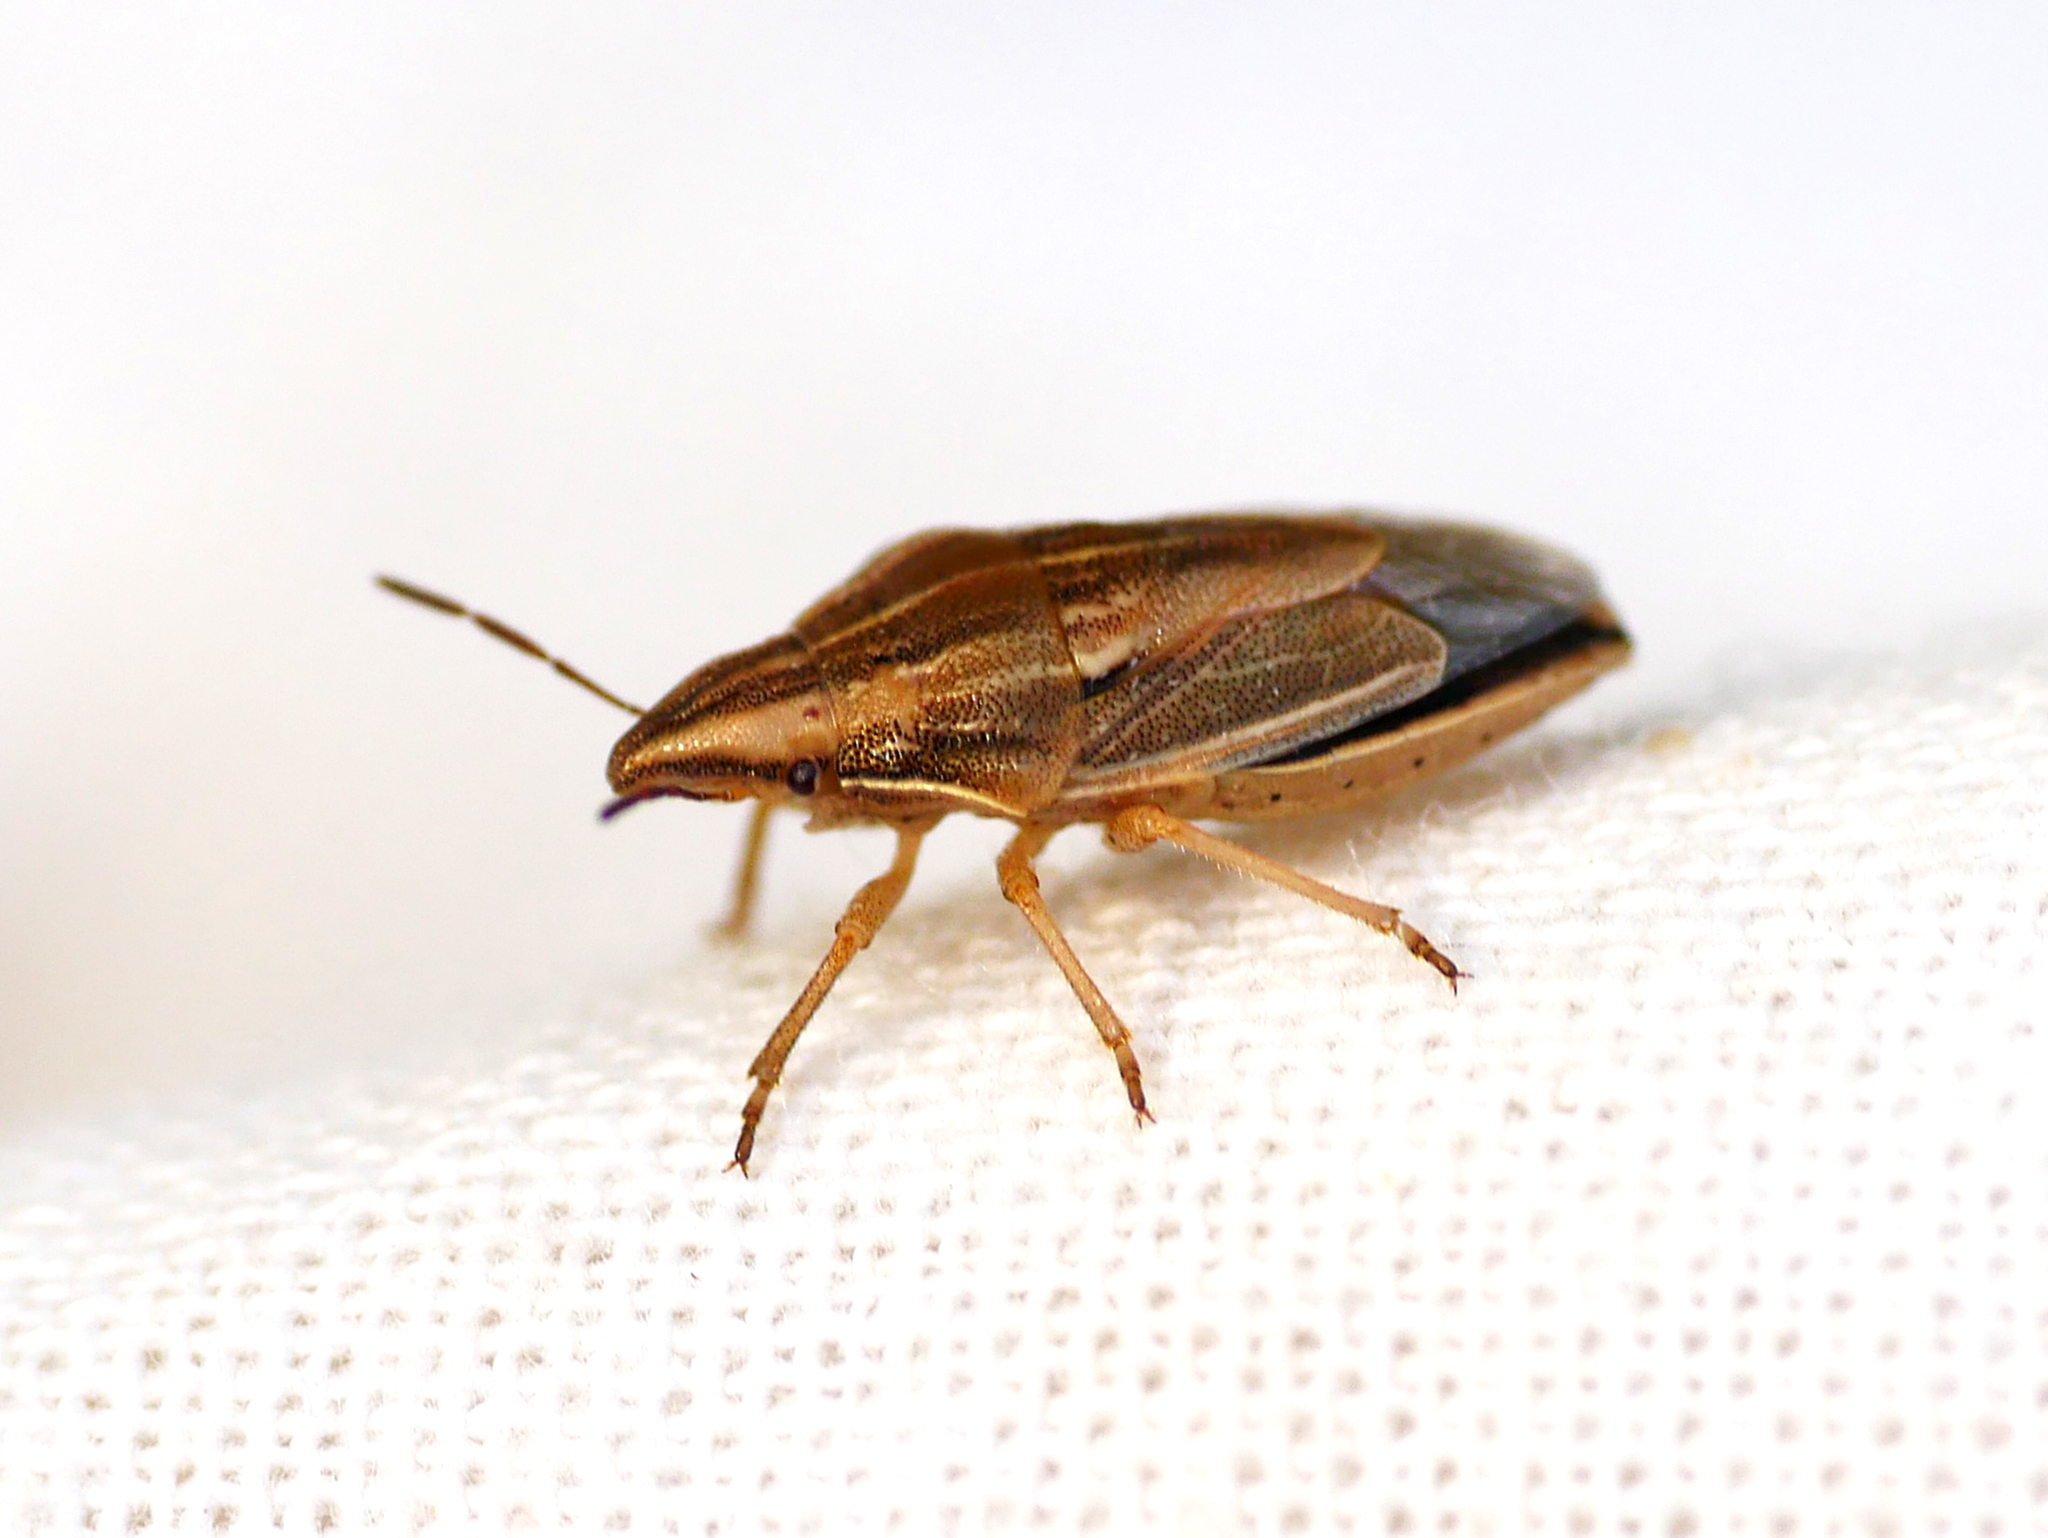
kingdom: Animalia
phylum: Arthropoda
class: Insecta
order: Hemiptera
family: Pentatomidae
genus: Aelia
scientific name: Aelia acuminata
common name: Bishop's mitre
